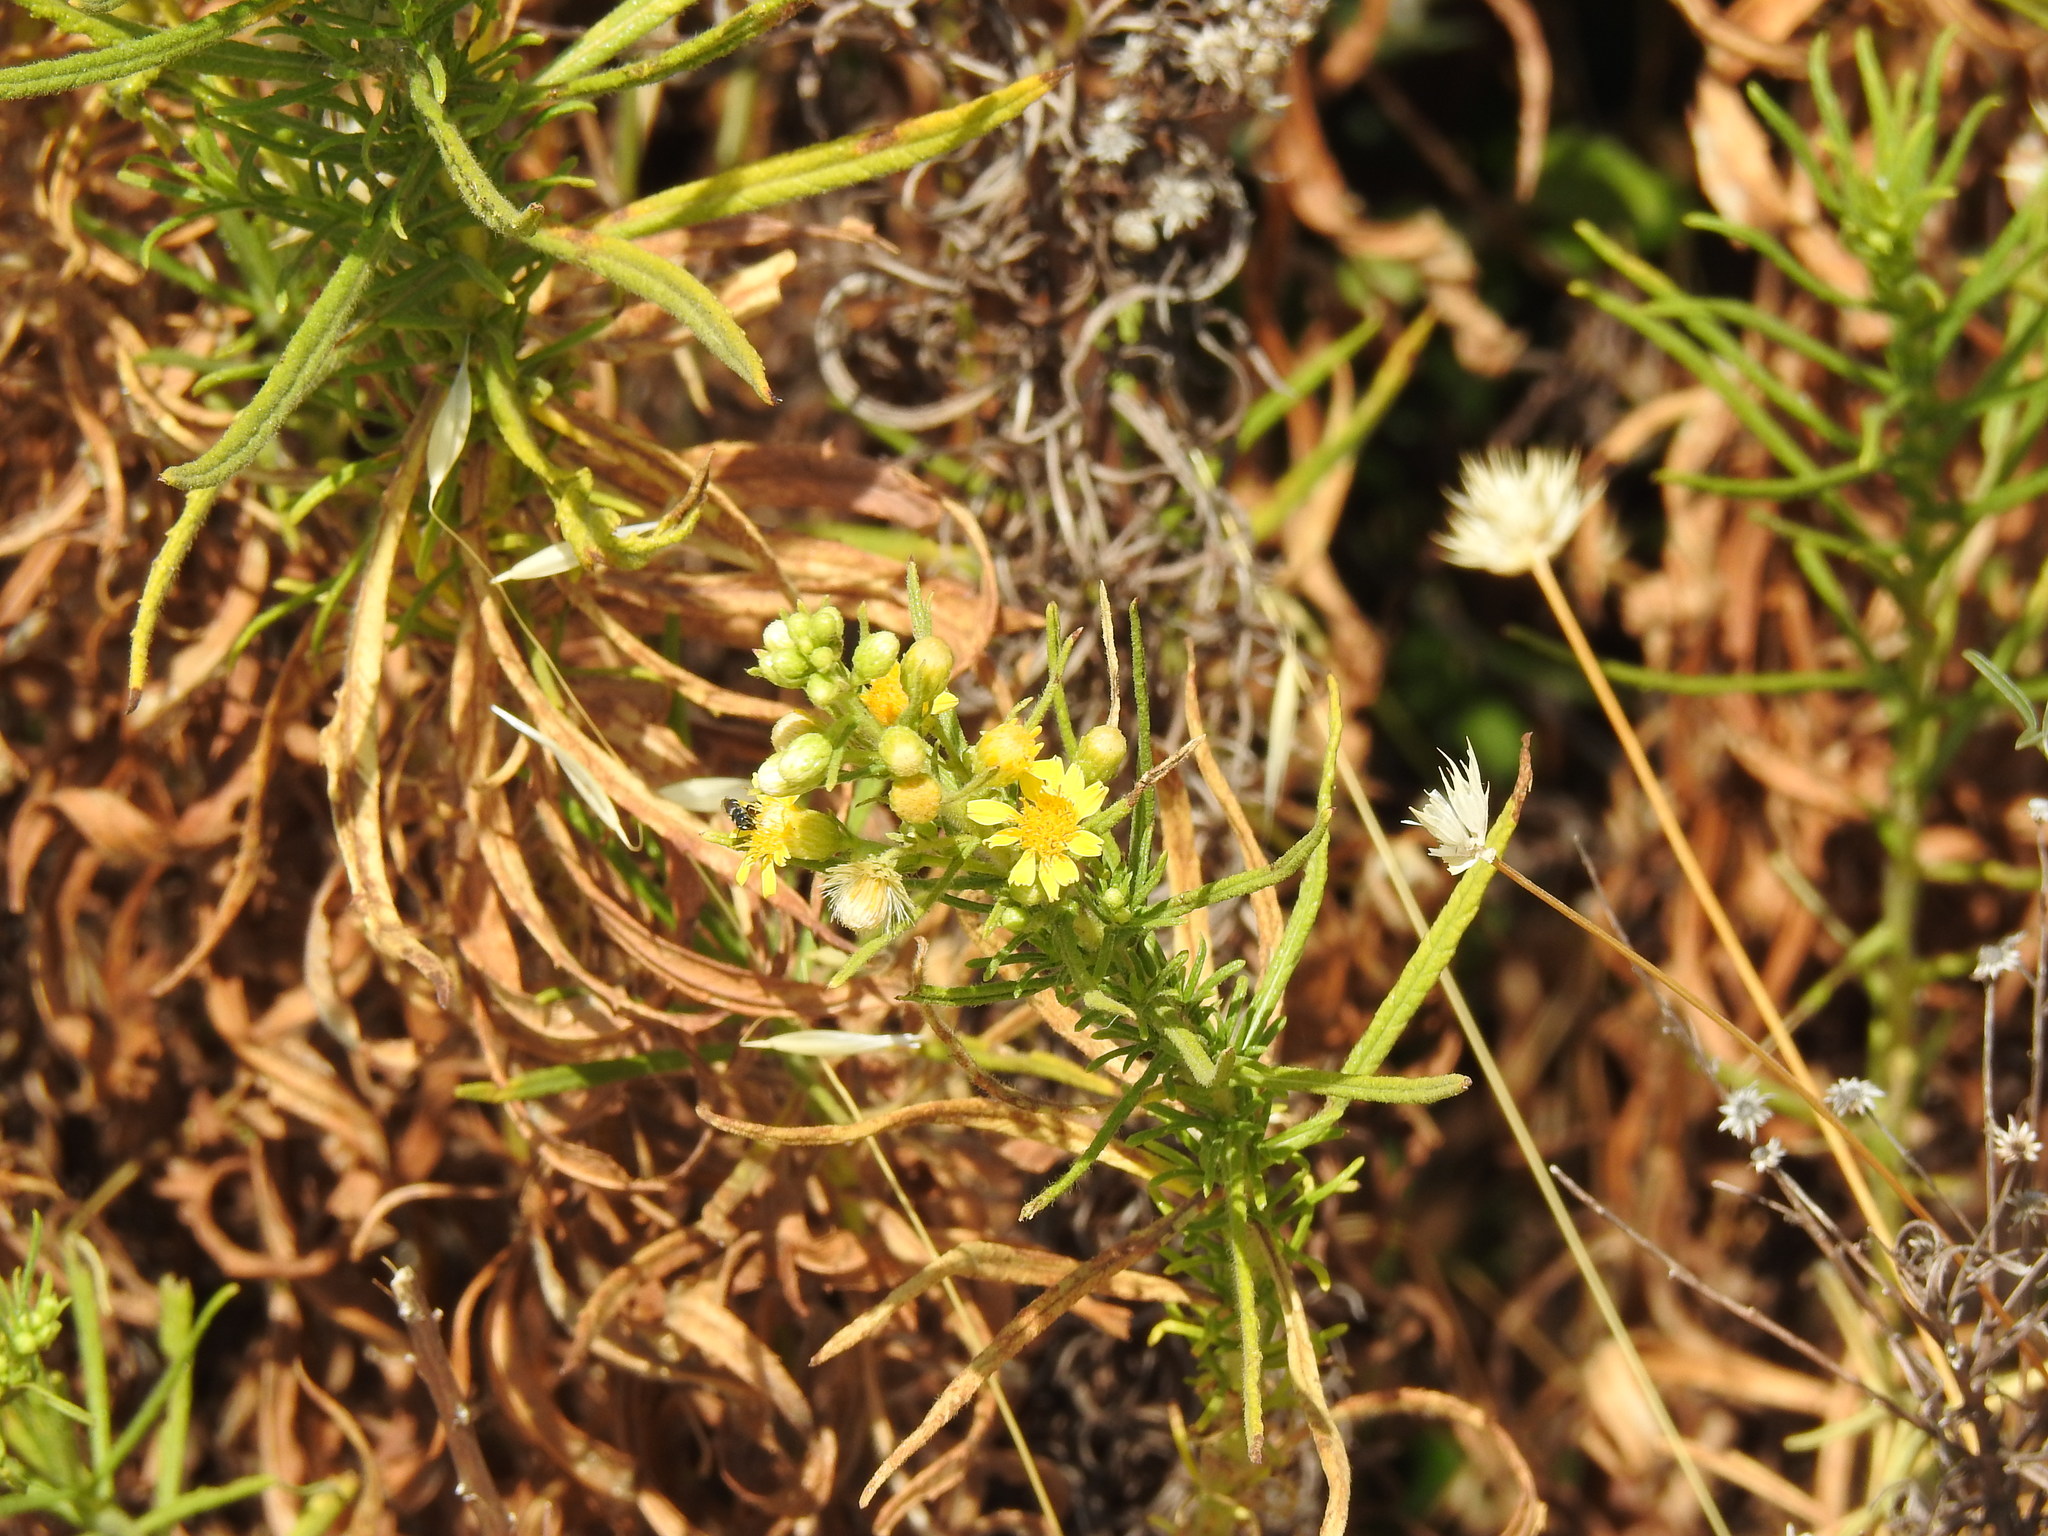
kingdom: Plantae
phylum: Tracheophyta
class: Magnoliopsida
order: Asterales
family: Asteraceae
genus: Dittrichia
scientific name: Dittrichia viscosa
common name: Woody fleabane
